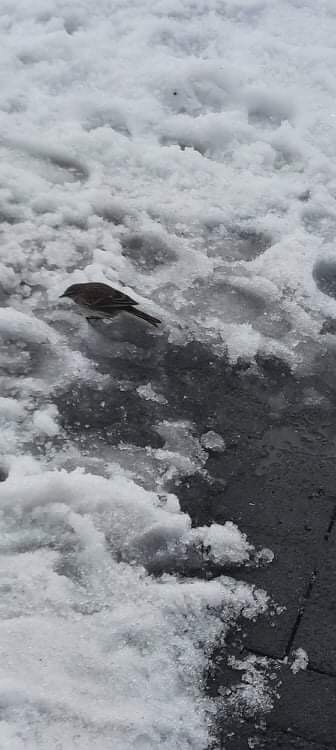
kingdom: Animalia
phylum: Chordata
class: Aves
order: Passeriformes
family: Motacillidae
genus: Anthus
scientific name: Anthus novaeseelandiae
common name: New zealand pipit
